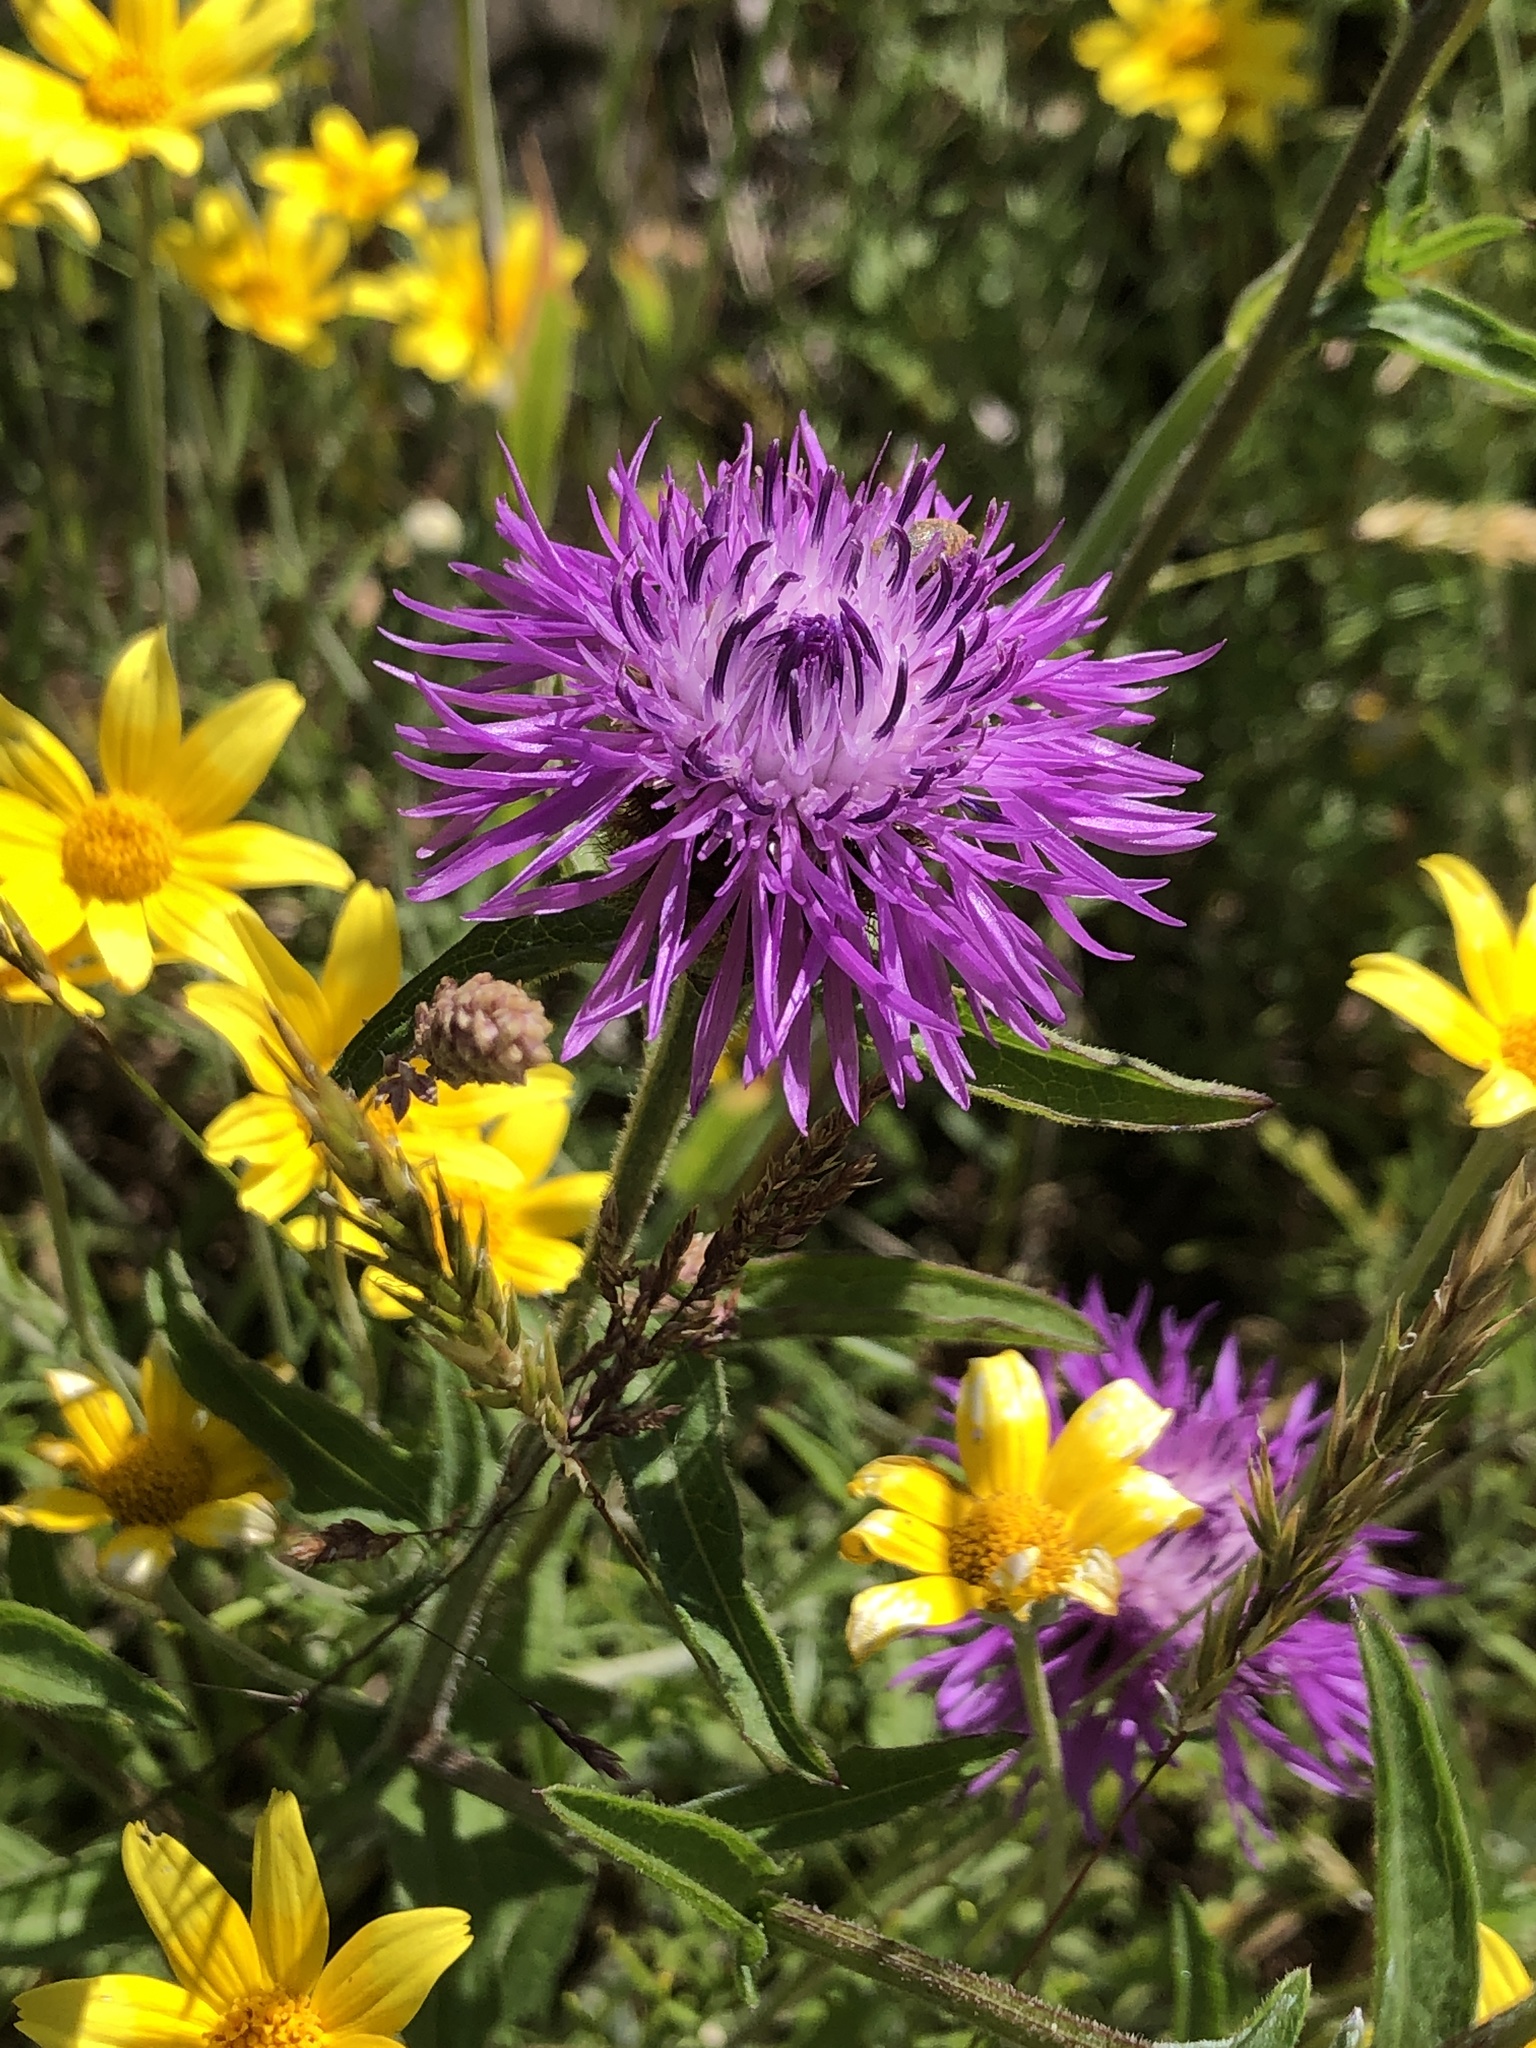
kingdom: Plantae
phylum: Tracheophyta
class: Magnoliopsida
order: Asterales
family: Asteraceae
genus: Centaurea
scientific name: Centaurea stoebe
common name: Spotted knapweed
